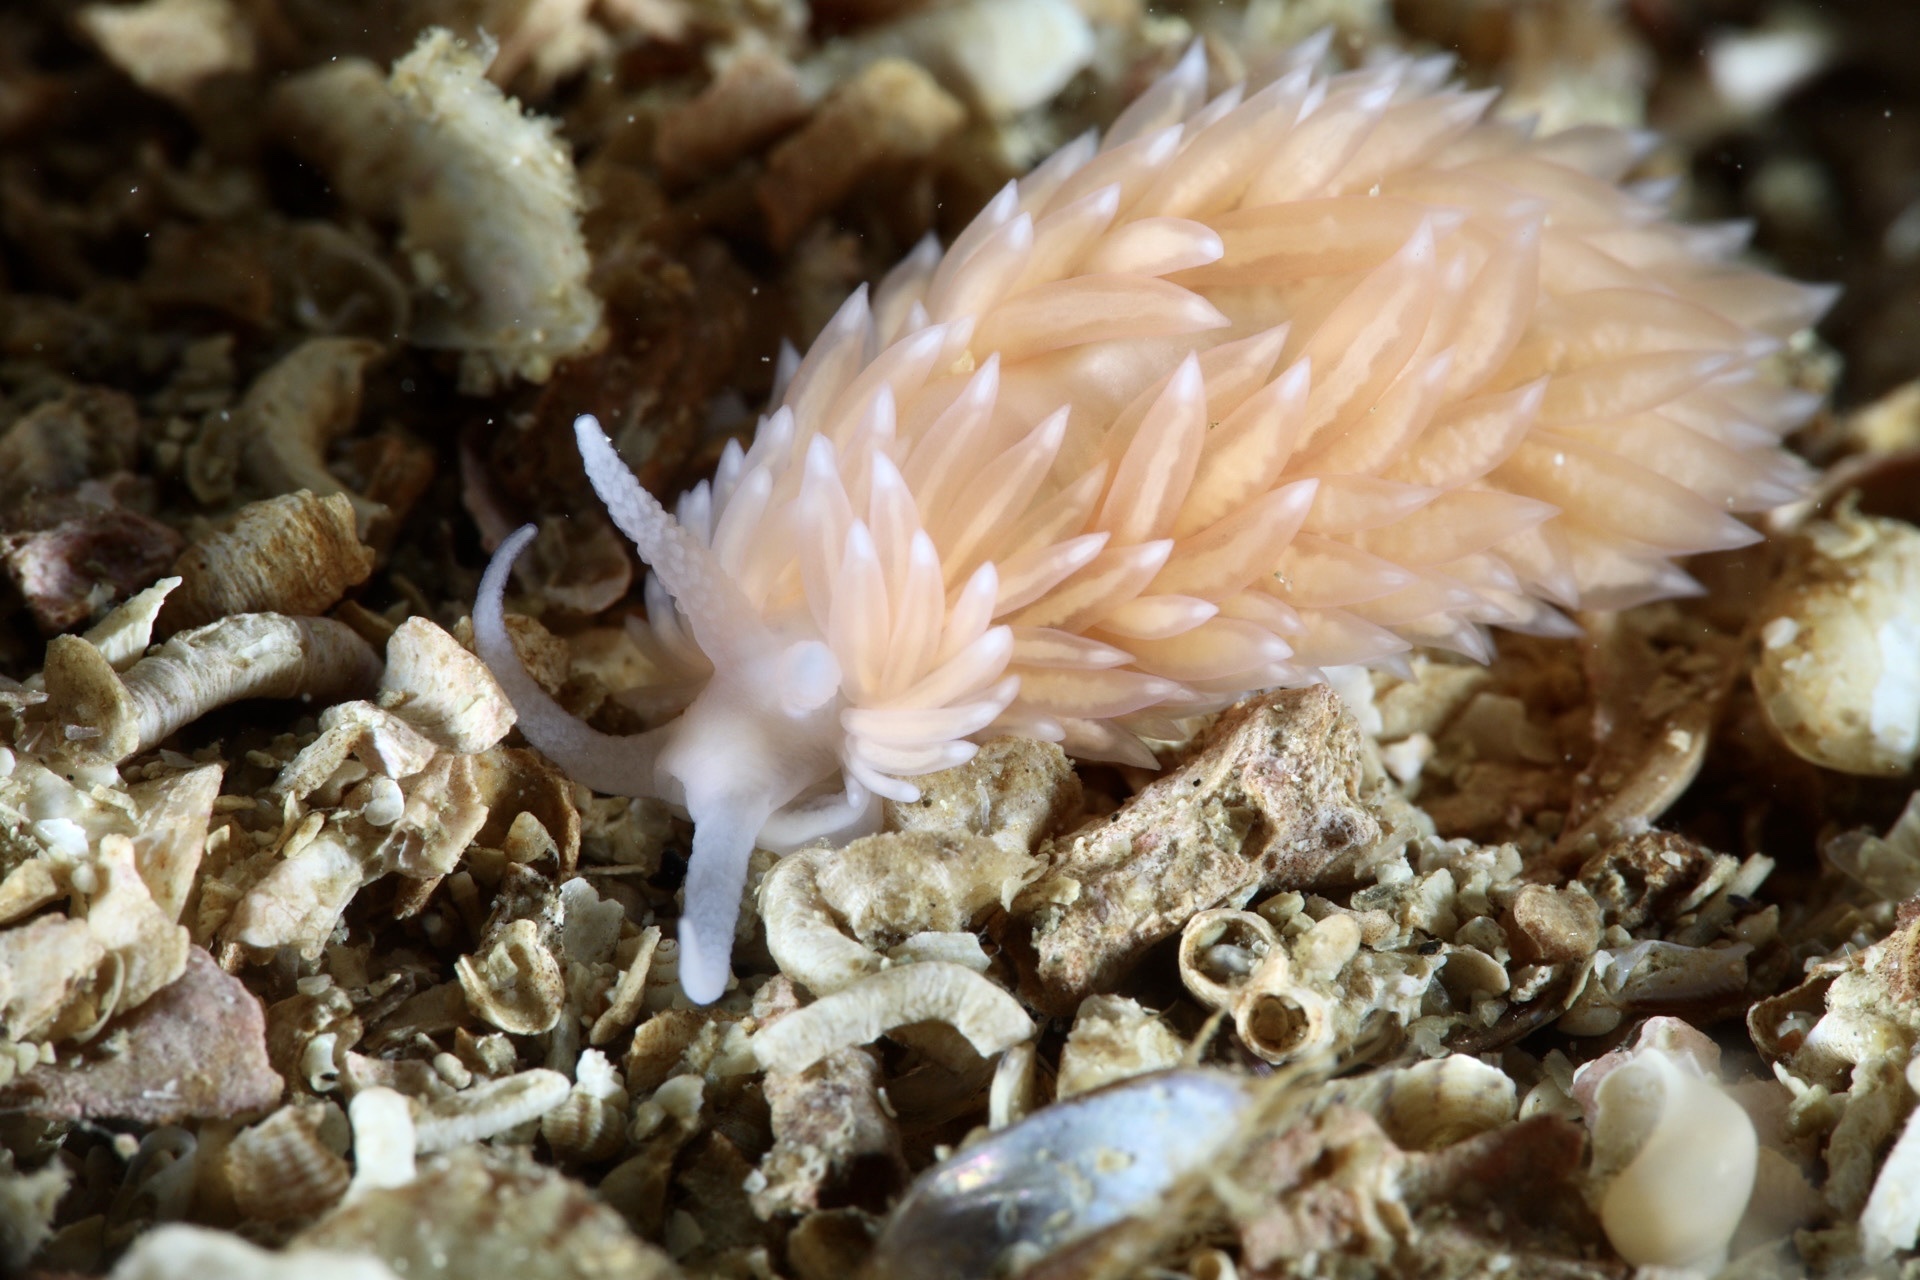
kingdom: Animalia
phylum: Mollusca
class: Gastropoda
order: Nudibranchia
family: Aeolidiidae
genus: Berghia
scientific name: Berghia norvegica
